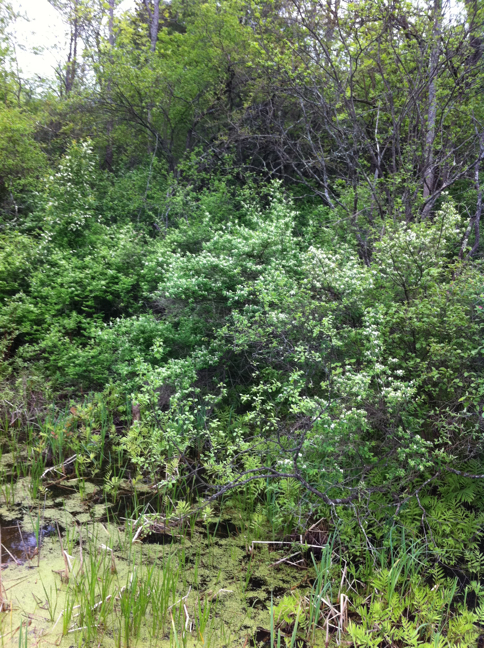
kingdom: Plantae
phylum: Tracheophyta
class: Polypodiopsida
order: Polypodiales
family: Onocleaceae
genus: Onoclea
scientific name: Onoclea sensibilis
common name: Sensitive fern
